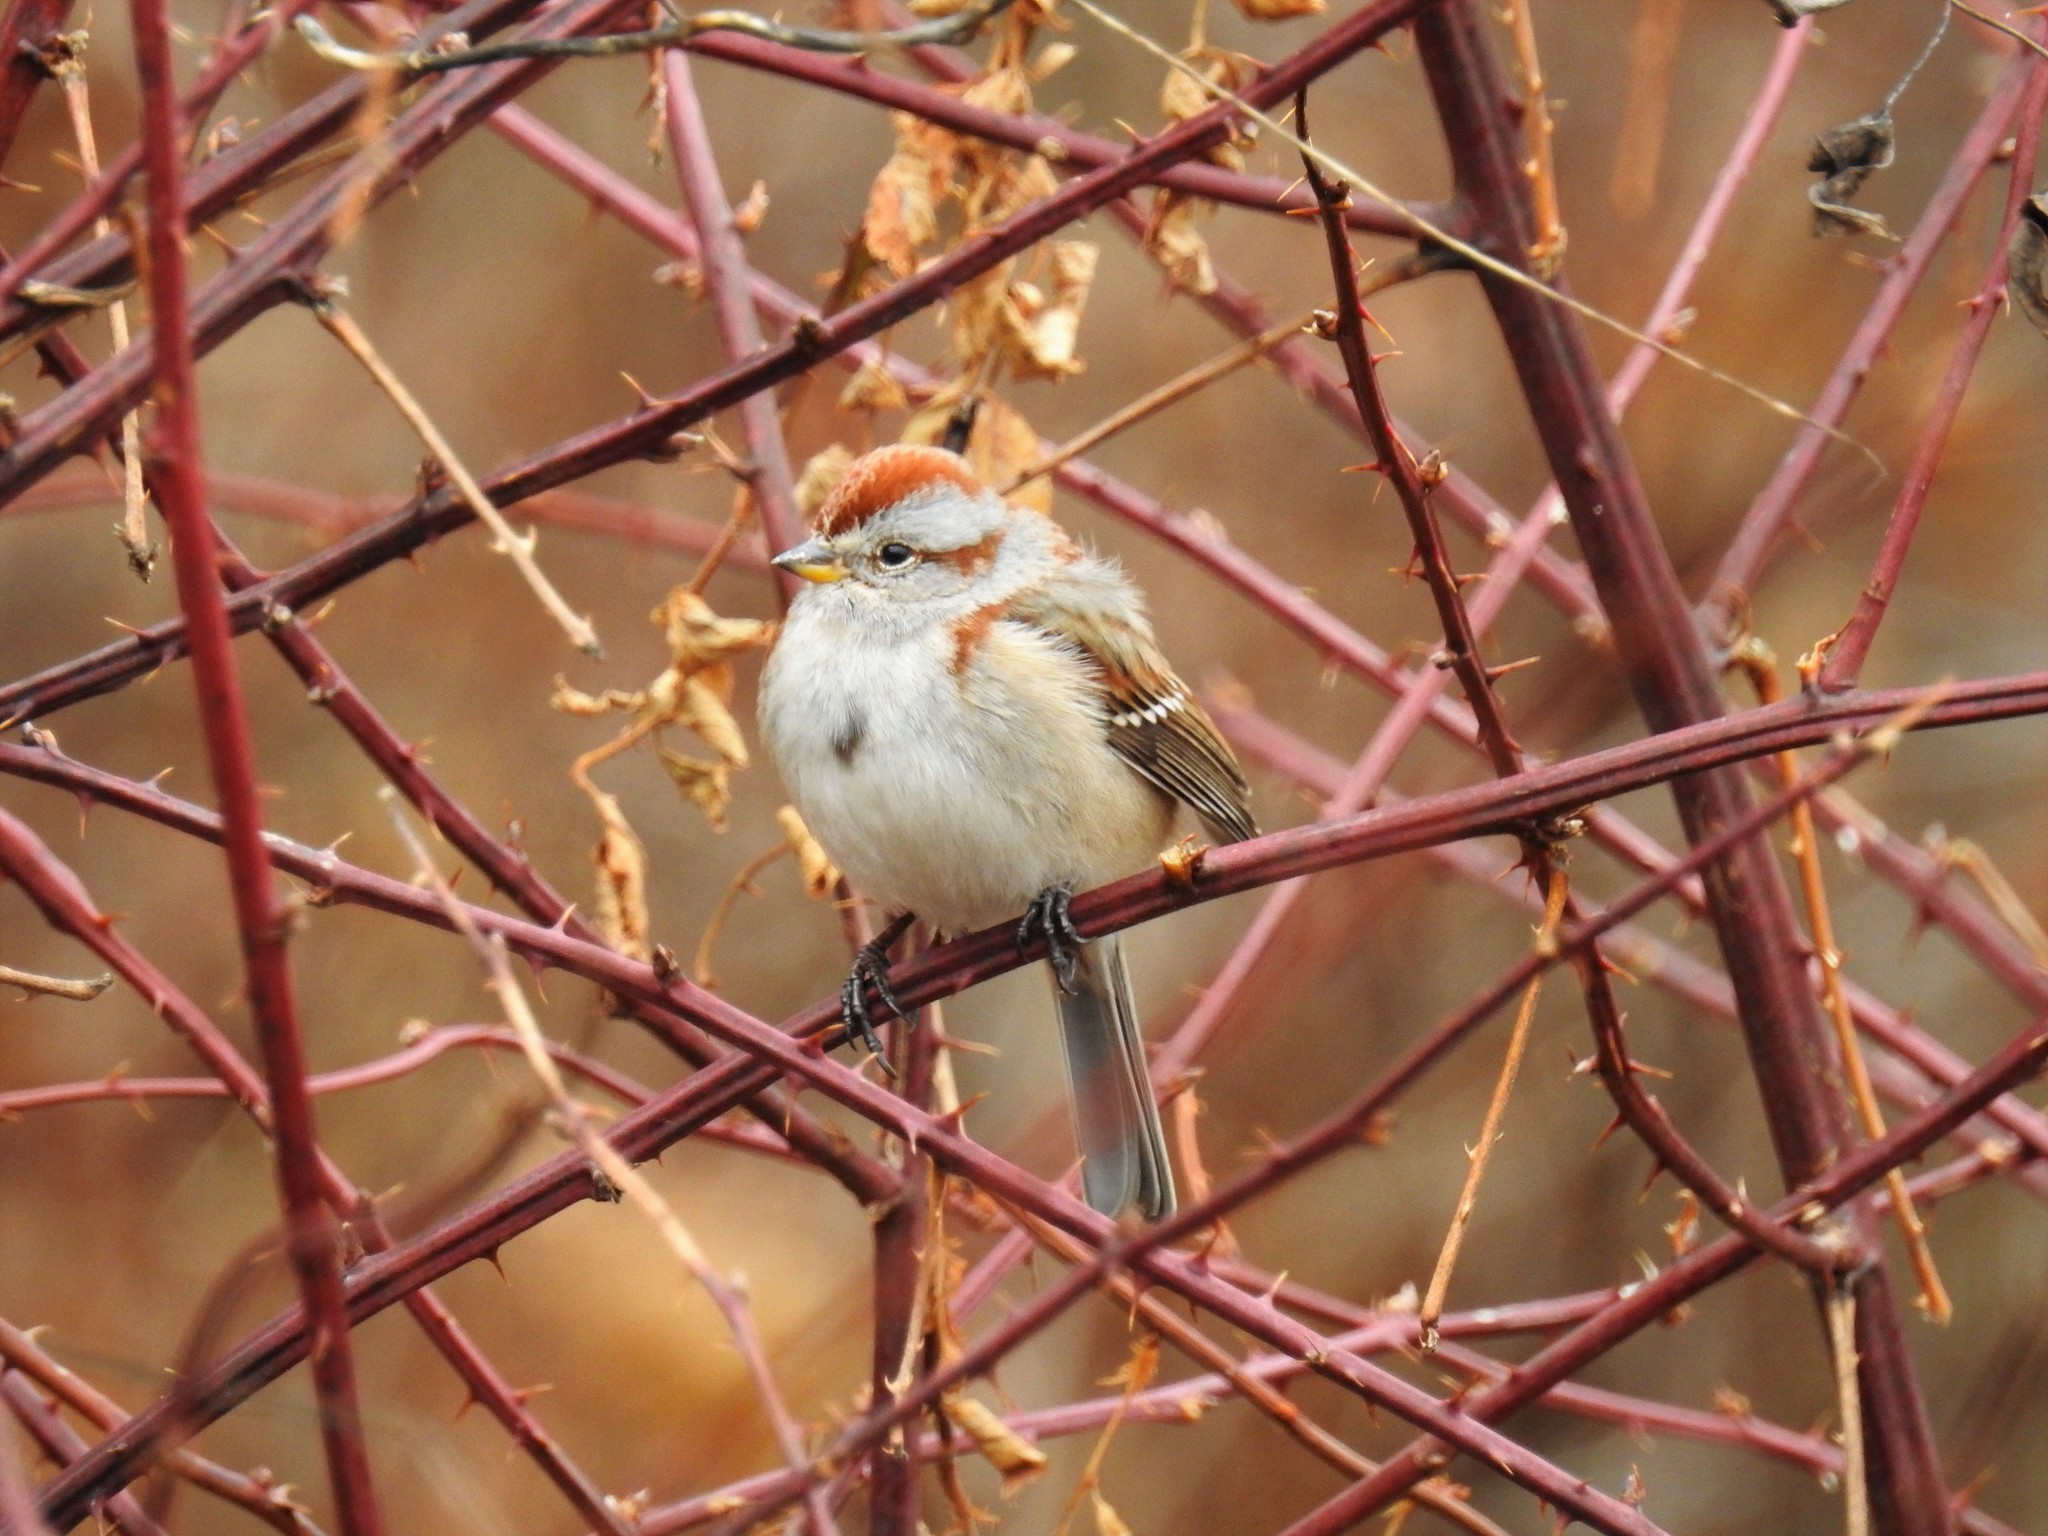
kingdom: Animalia
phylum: Chordata
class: Aves
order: Passeriformes
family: Passerellidae
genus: Spizelloides
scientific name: Spizelloides arborea
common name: American tree sparrow
